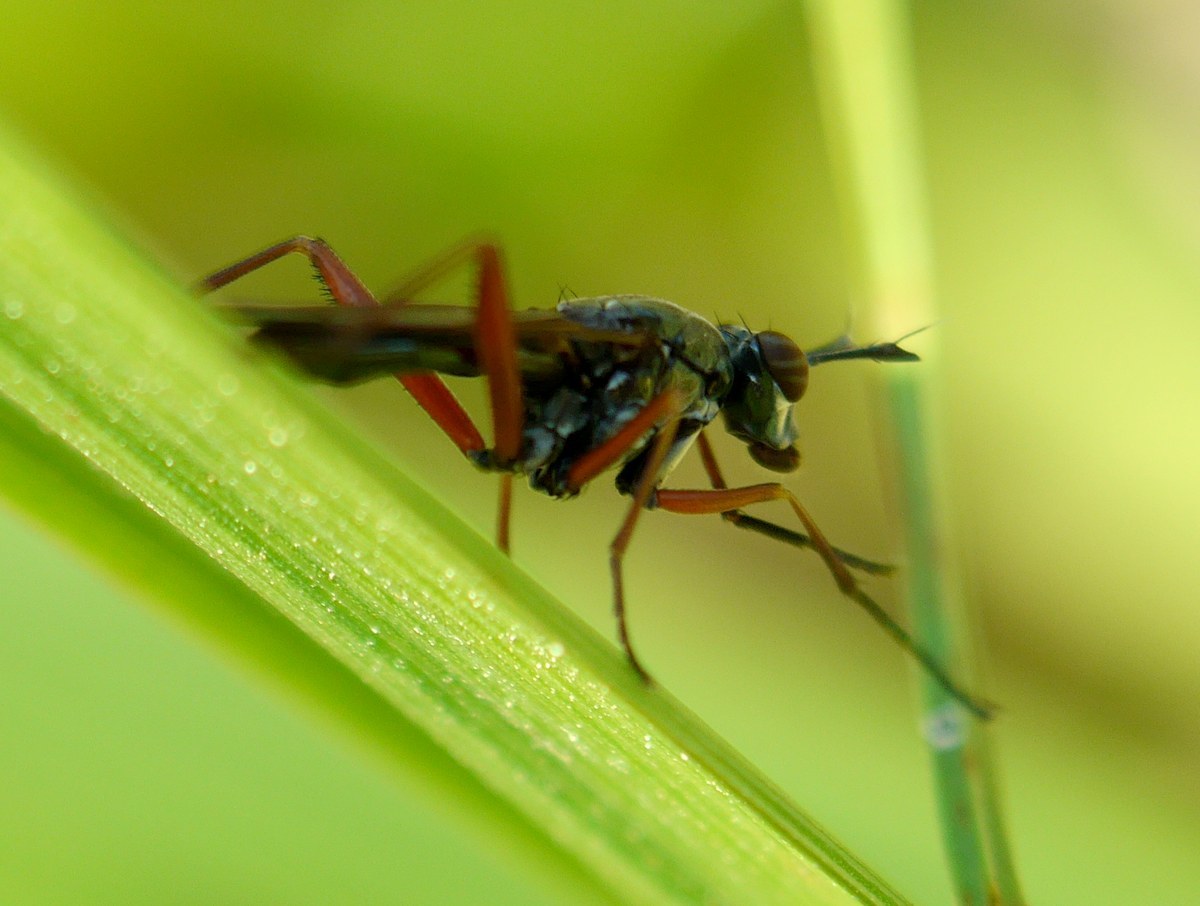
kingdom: Animalia
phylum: Arthropoda
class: Insecta
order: Diptera
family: Sciomyzidae
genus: Sepedon
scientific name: Sepedon sphegea
